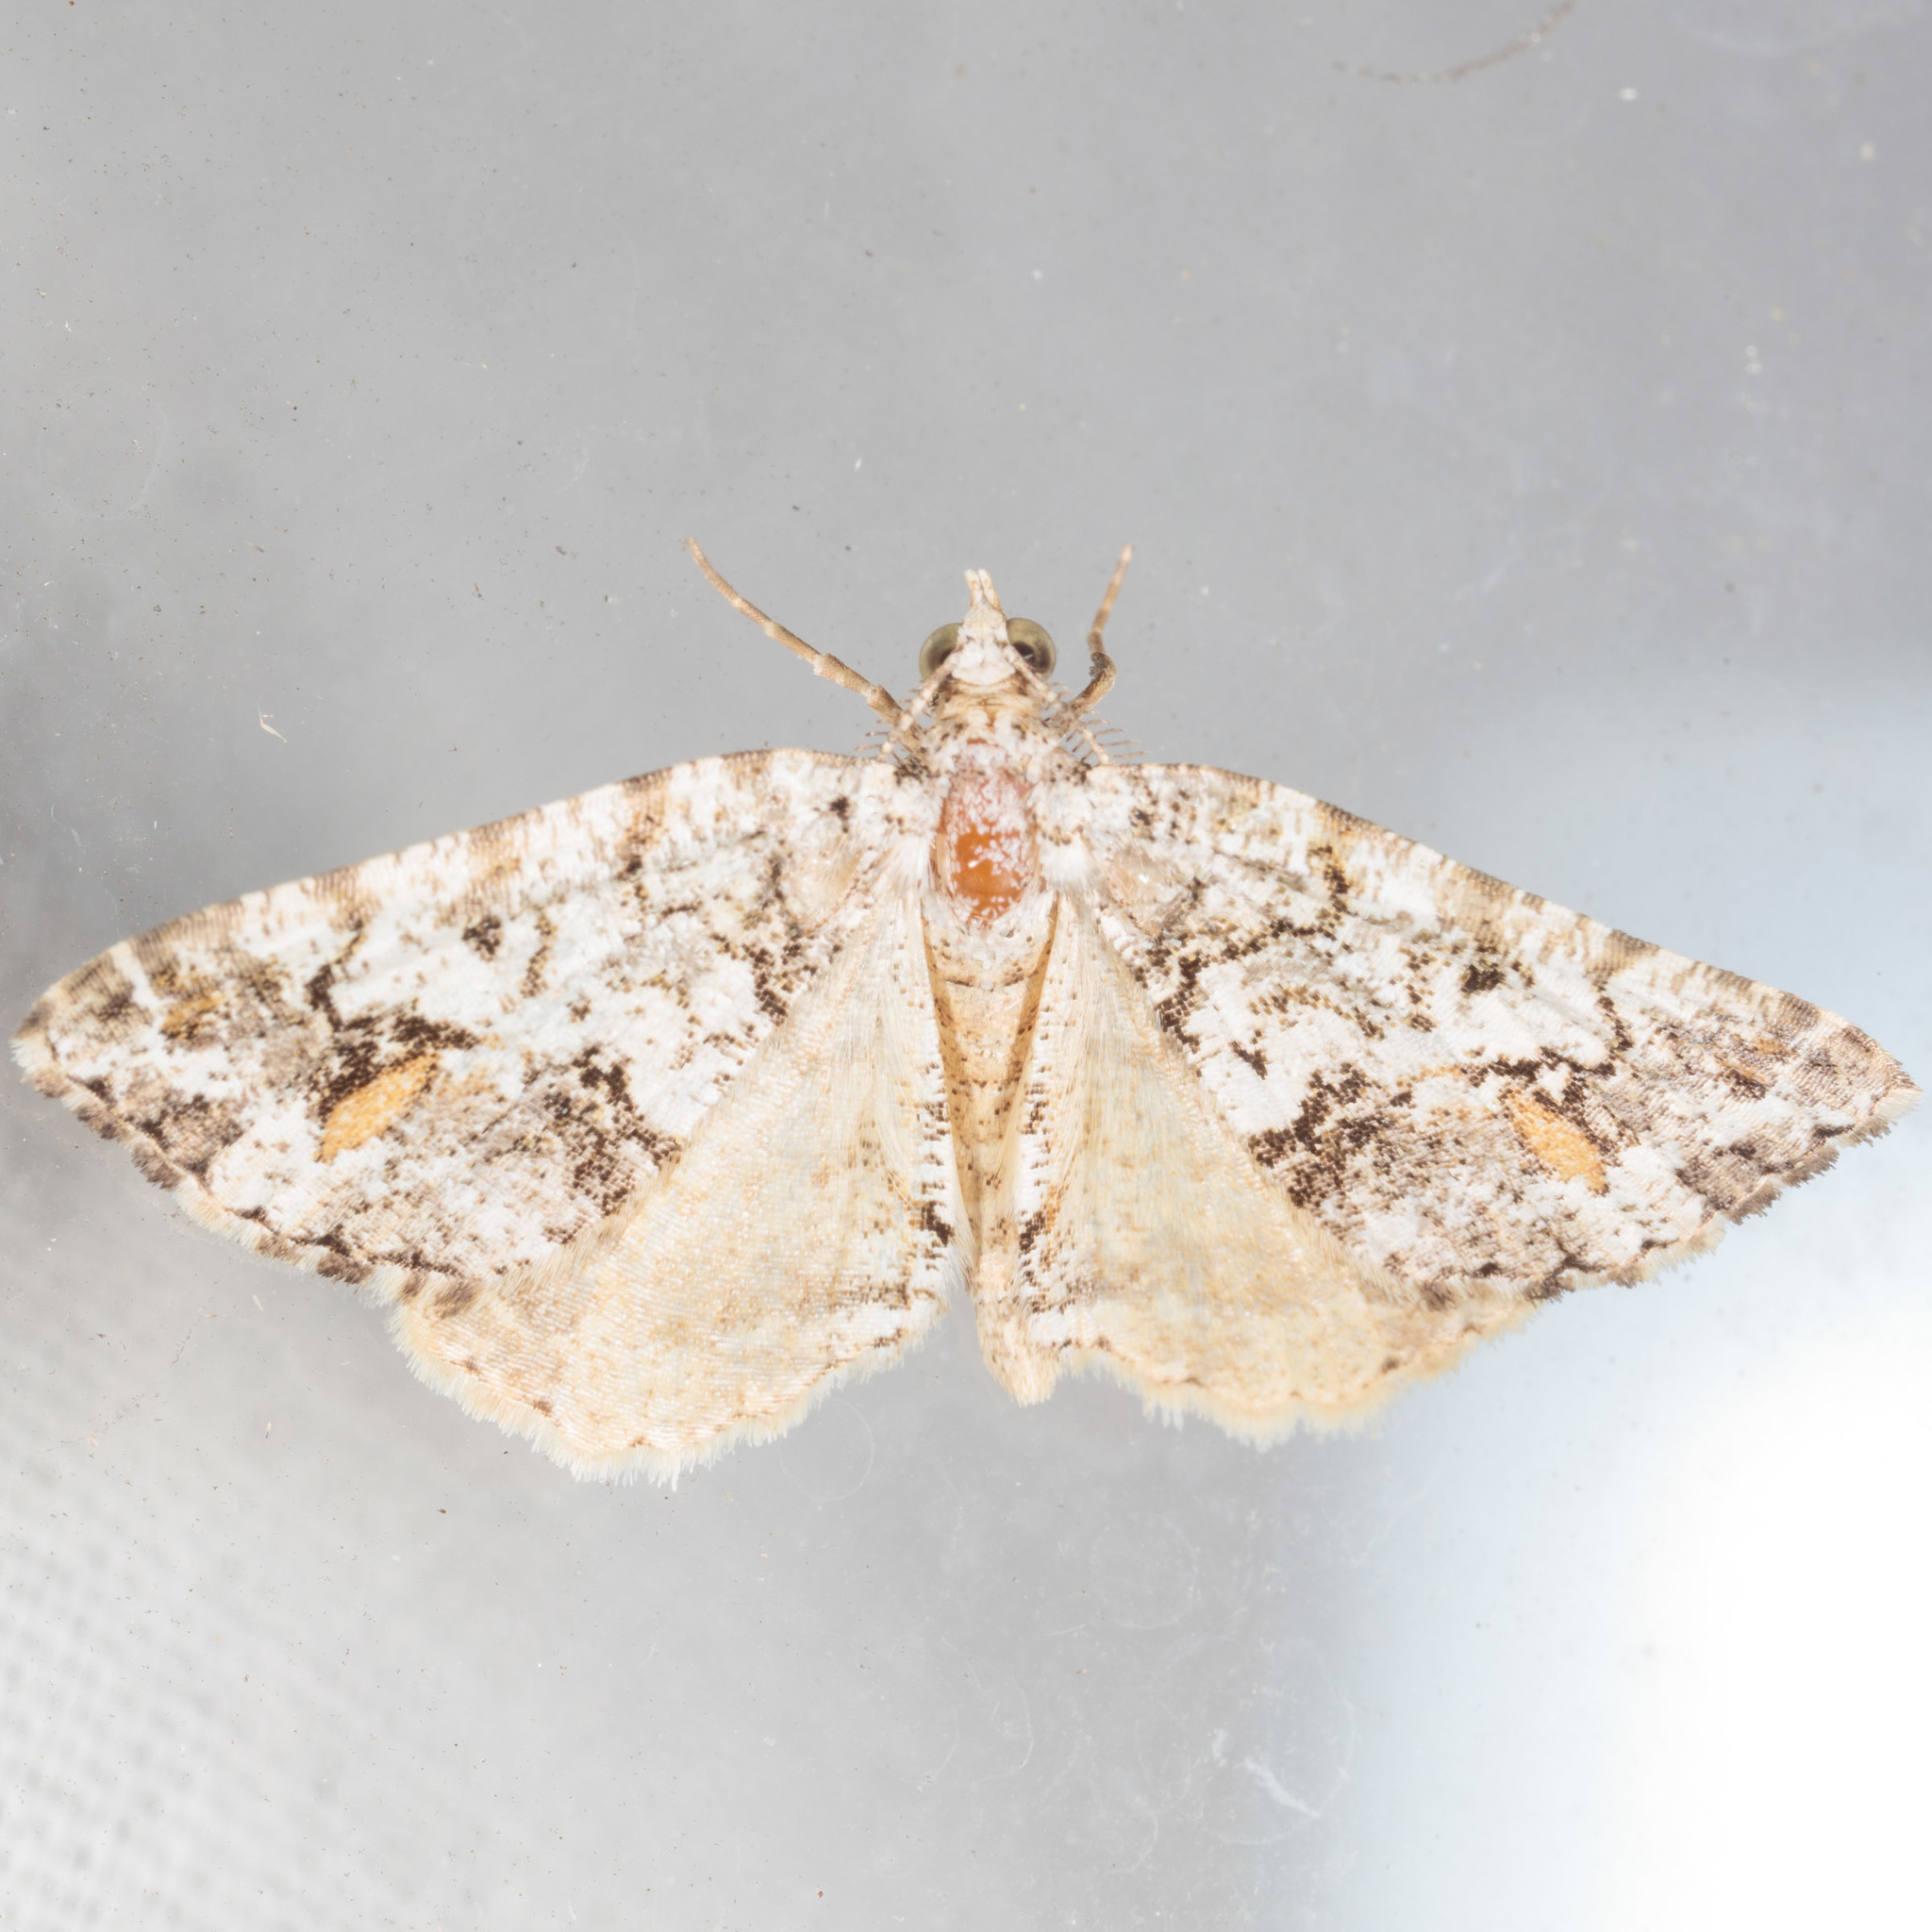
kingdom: Animalia
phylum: Arthropoda
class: Insecta
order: Lepidoptera
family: Geometridae
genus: Macaria
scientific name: Macaria graphidaria
